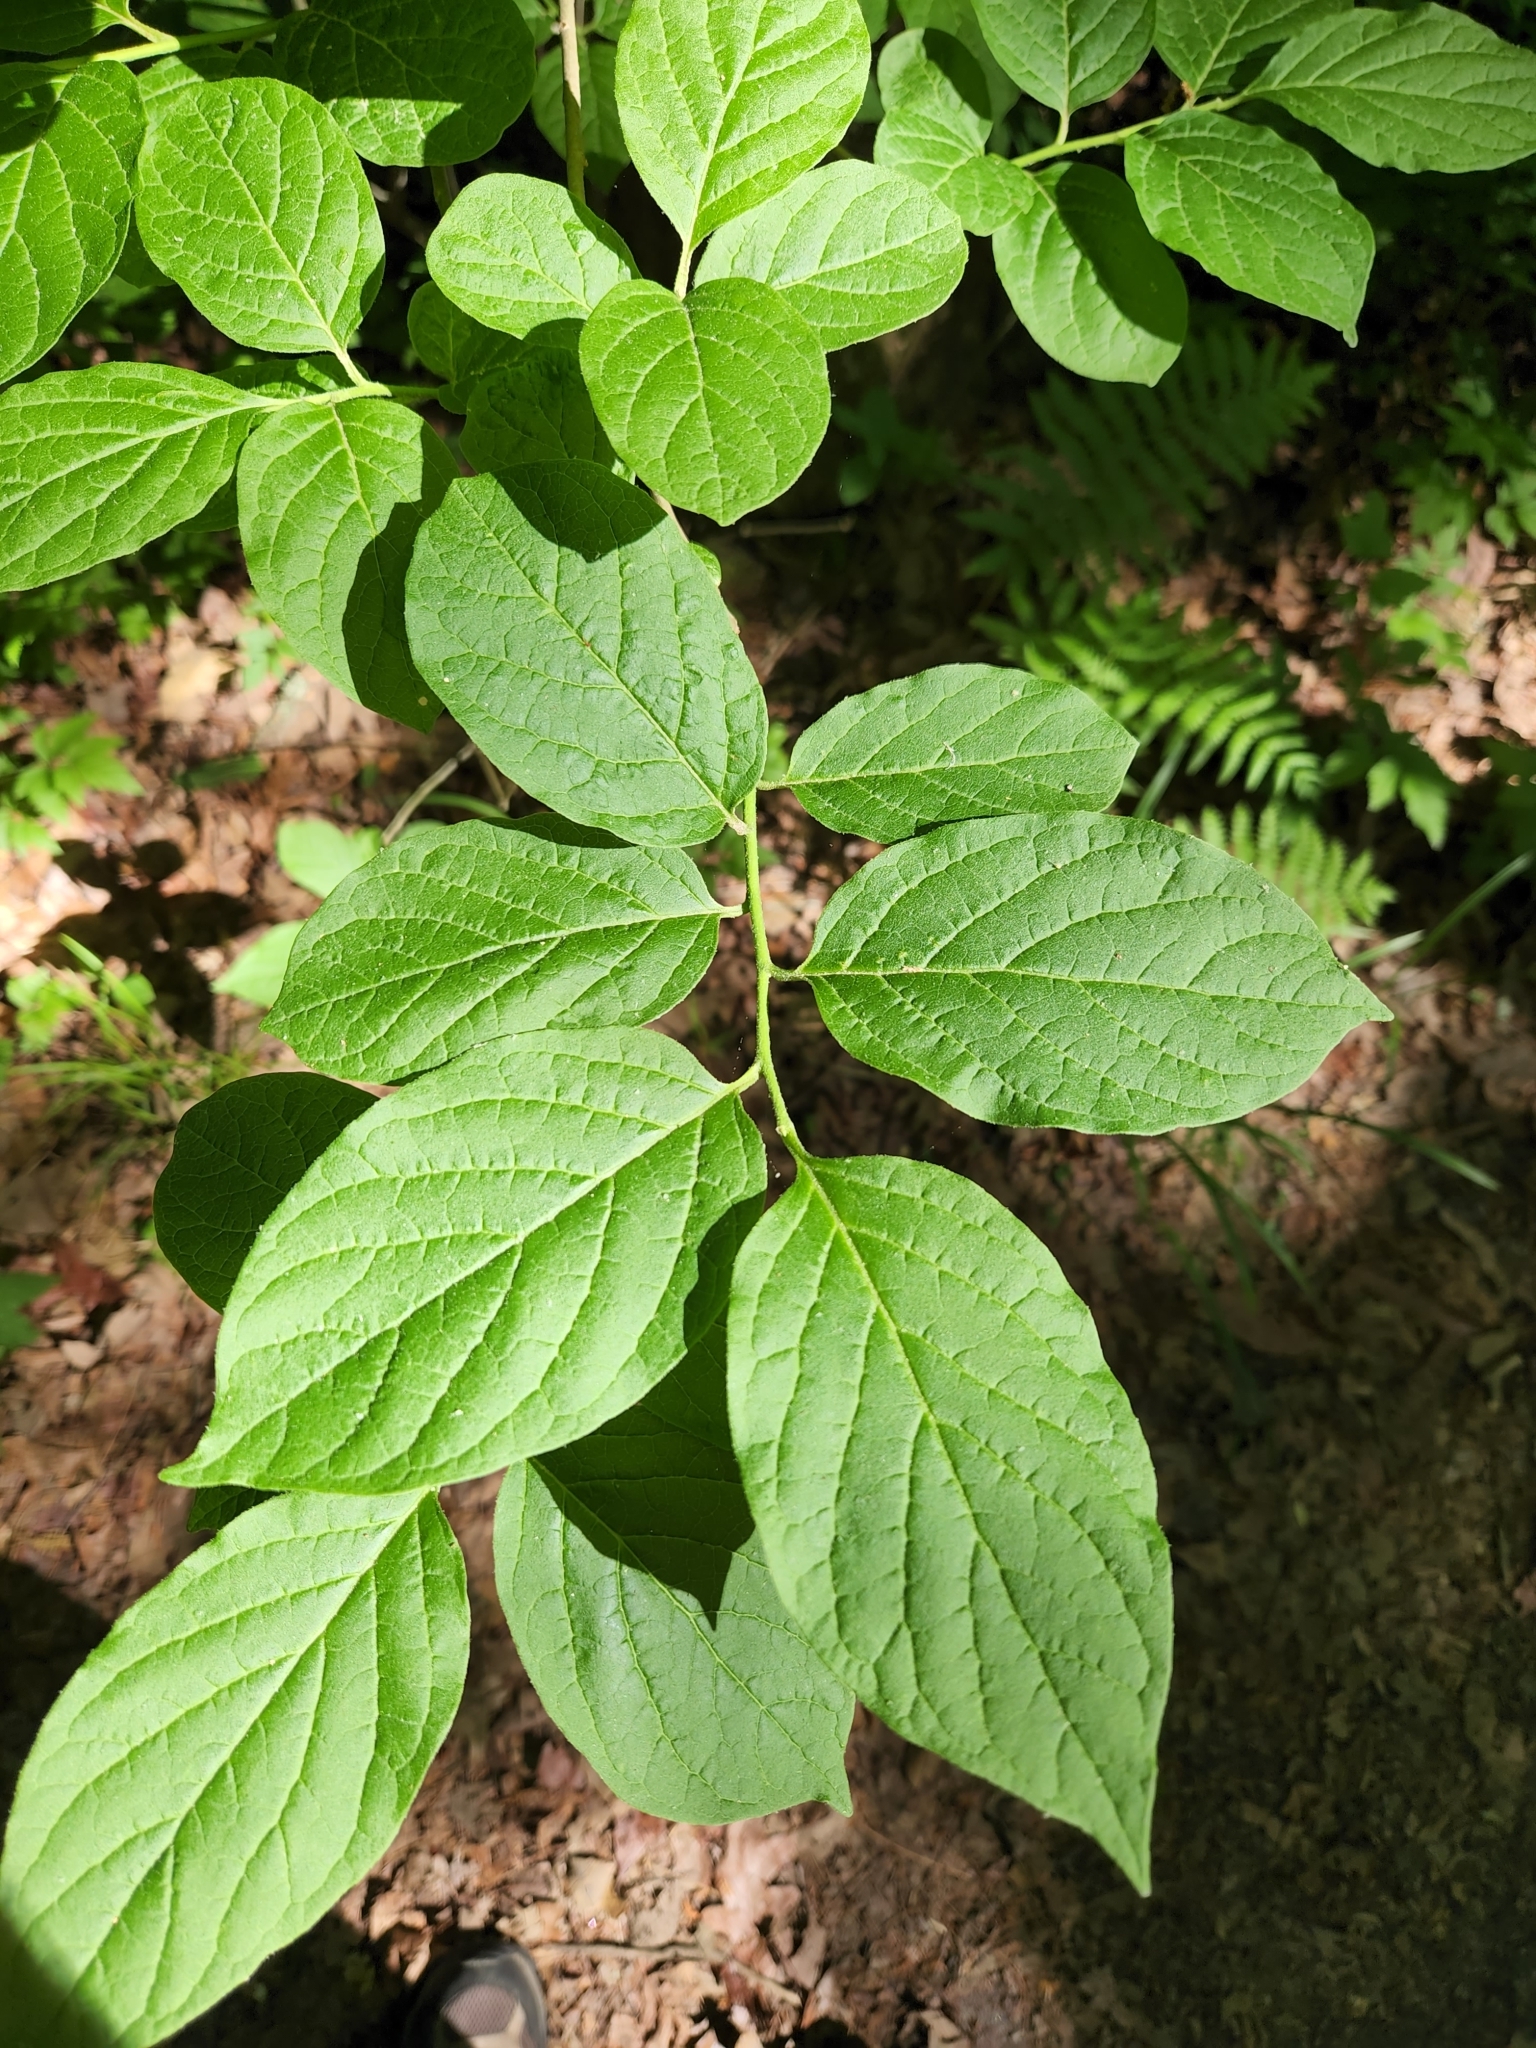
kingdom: Plantae
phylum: Tracheophyta
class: Magnoliopsida
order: Santalales
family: Cervantesiaceae
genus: Pyrularia
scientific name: Pyrularia pubera
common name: Oilnut
